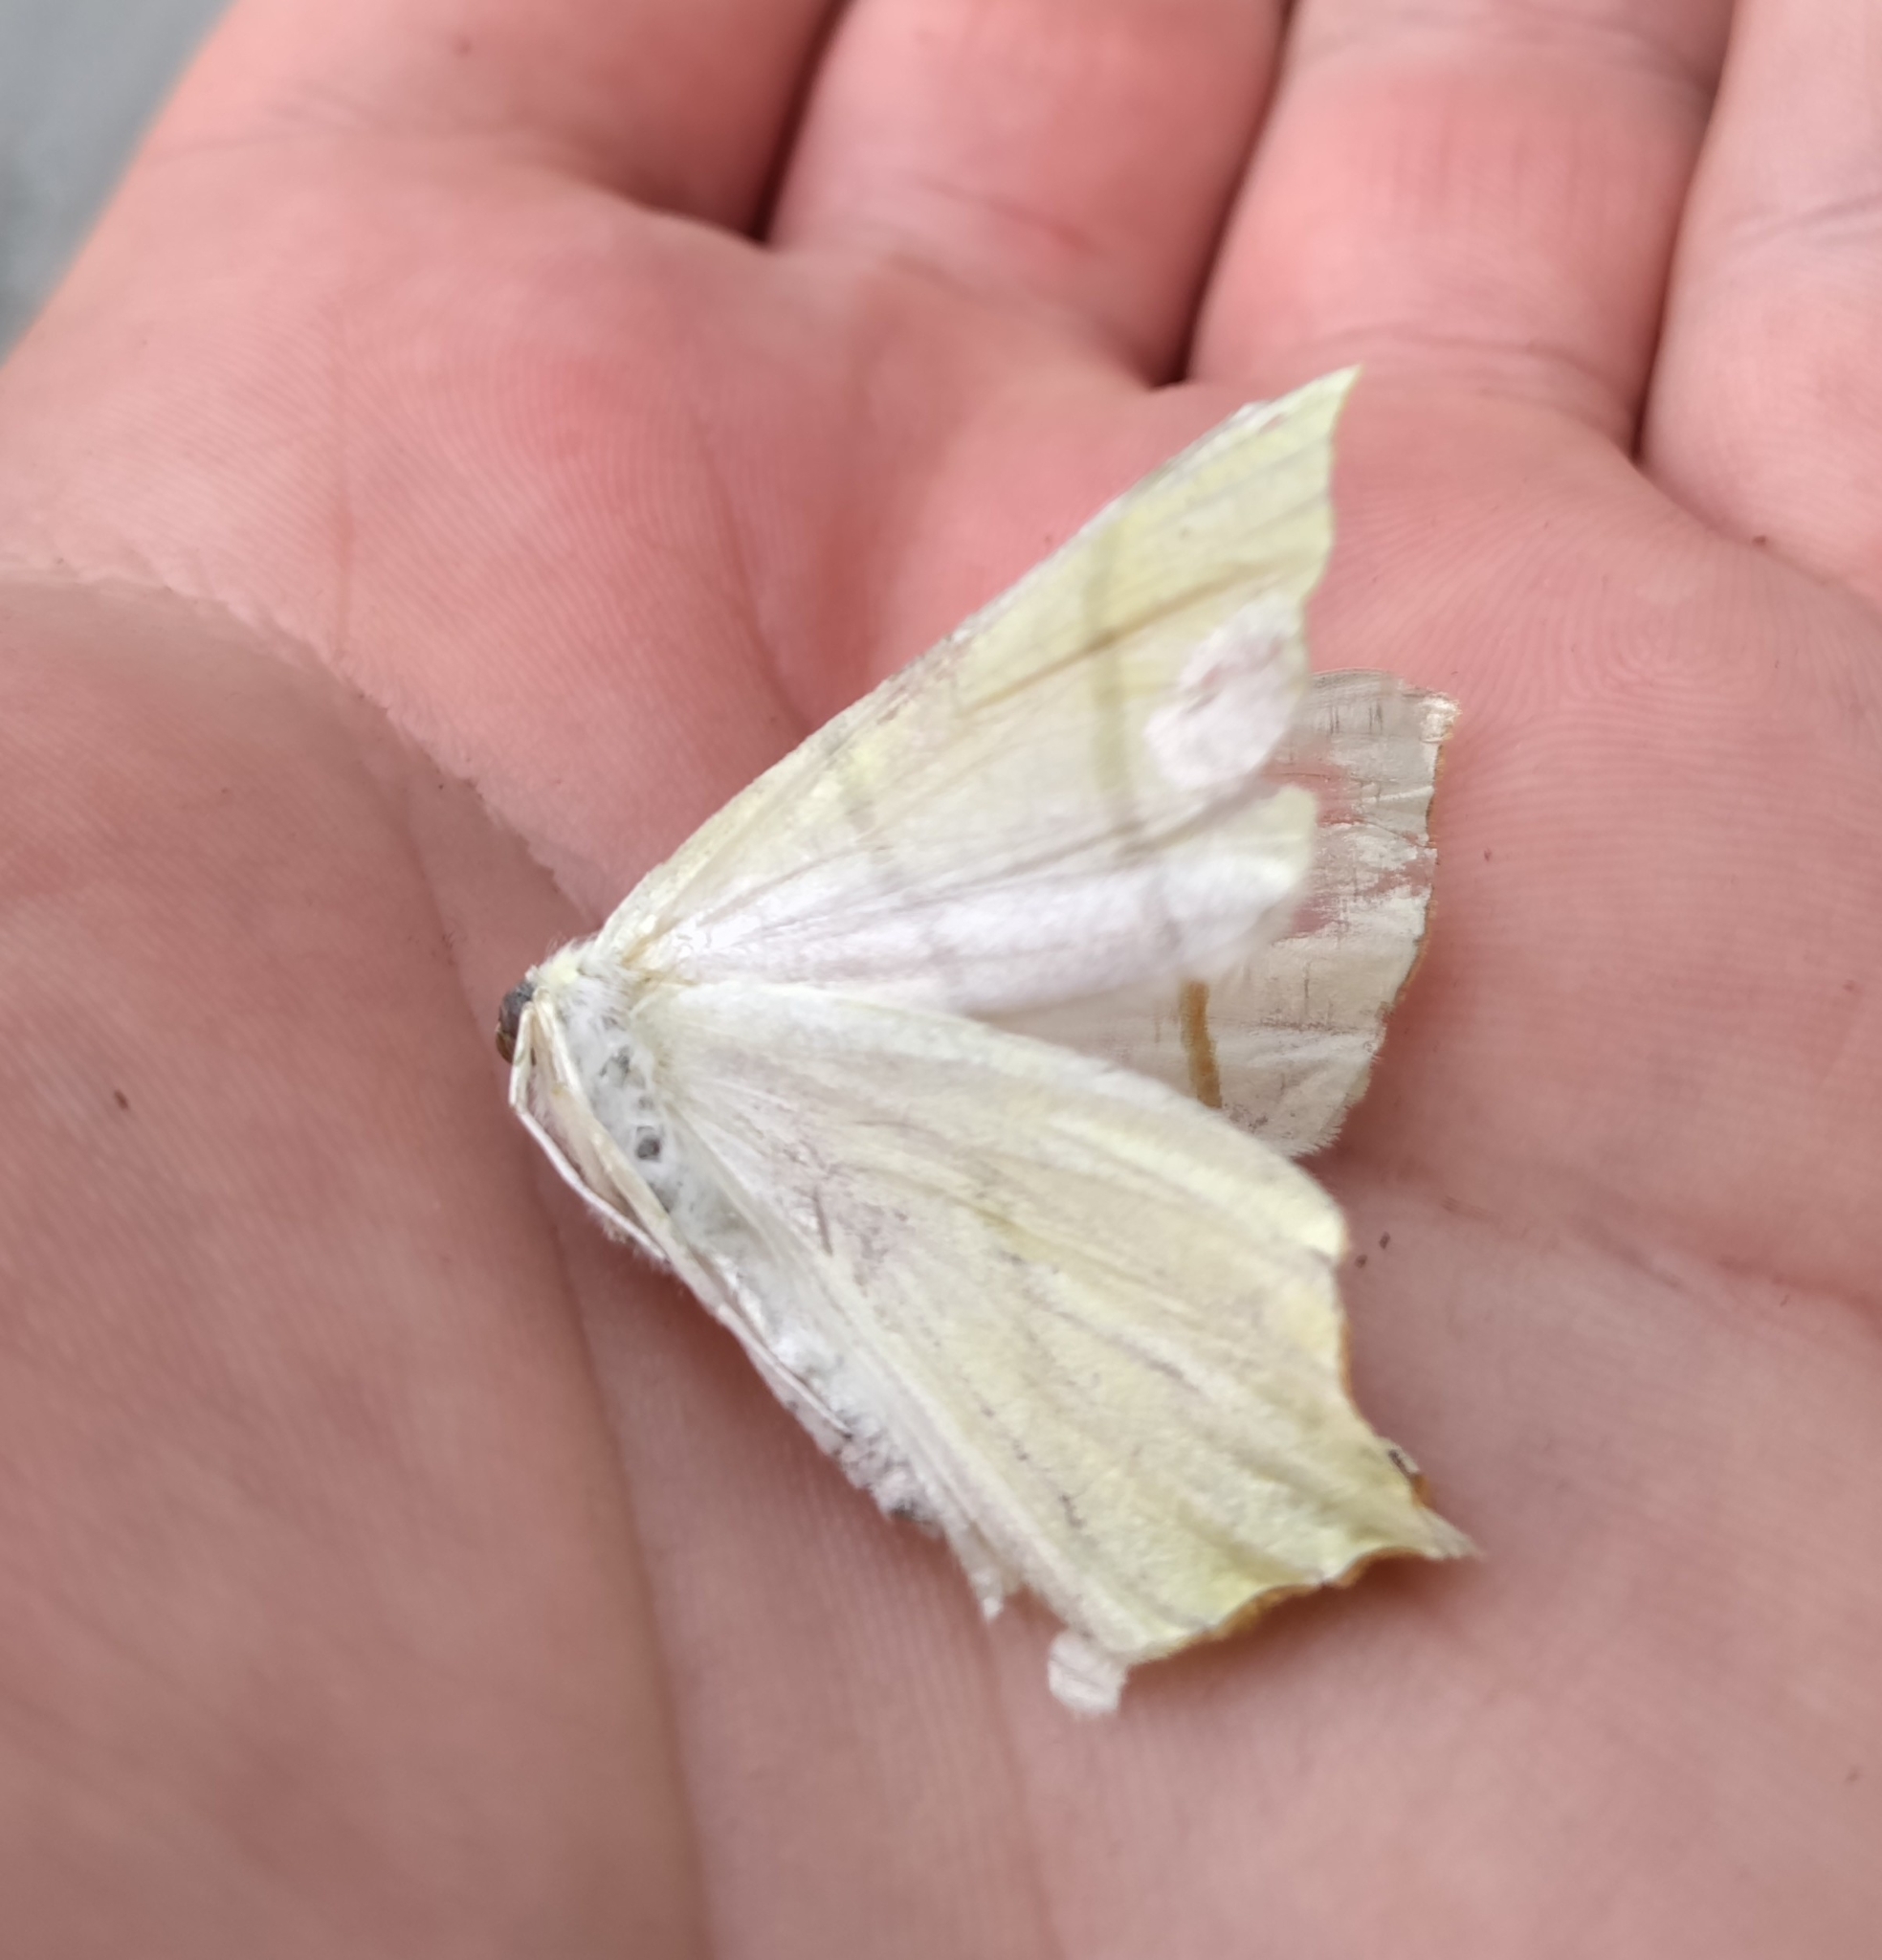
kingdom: Animalia
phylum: Arthropoda
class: Insecta
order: Lepidoptera
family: Geometridae
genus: Ourapteryx
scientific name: Ourapteryx sambucaria
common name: Swallow-tailed moth
